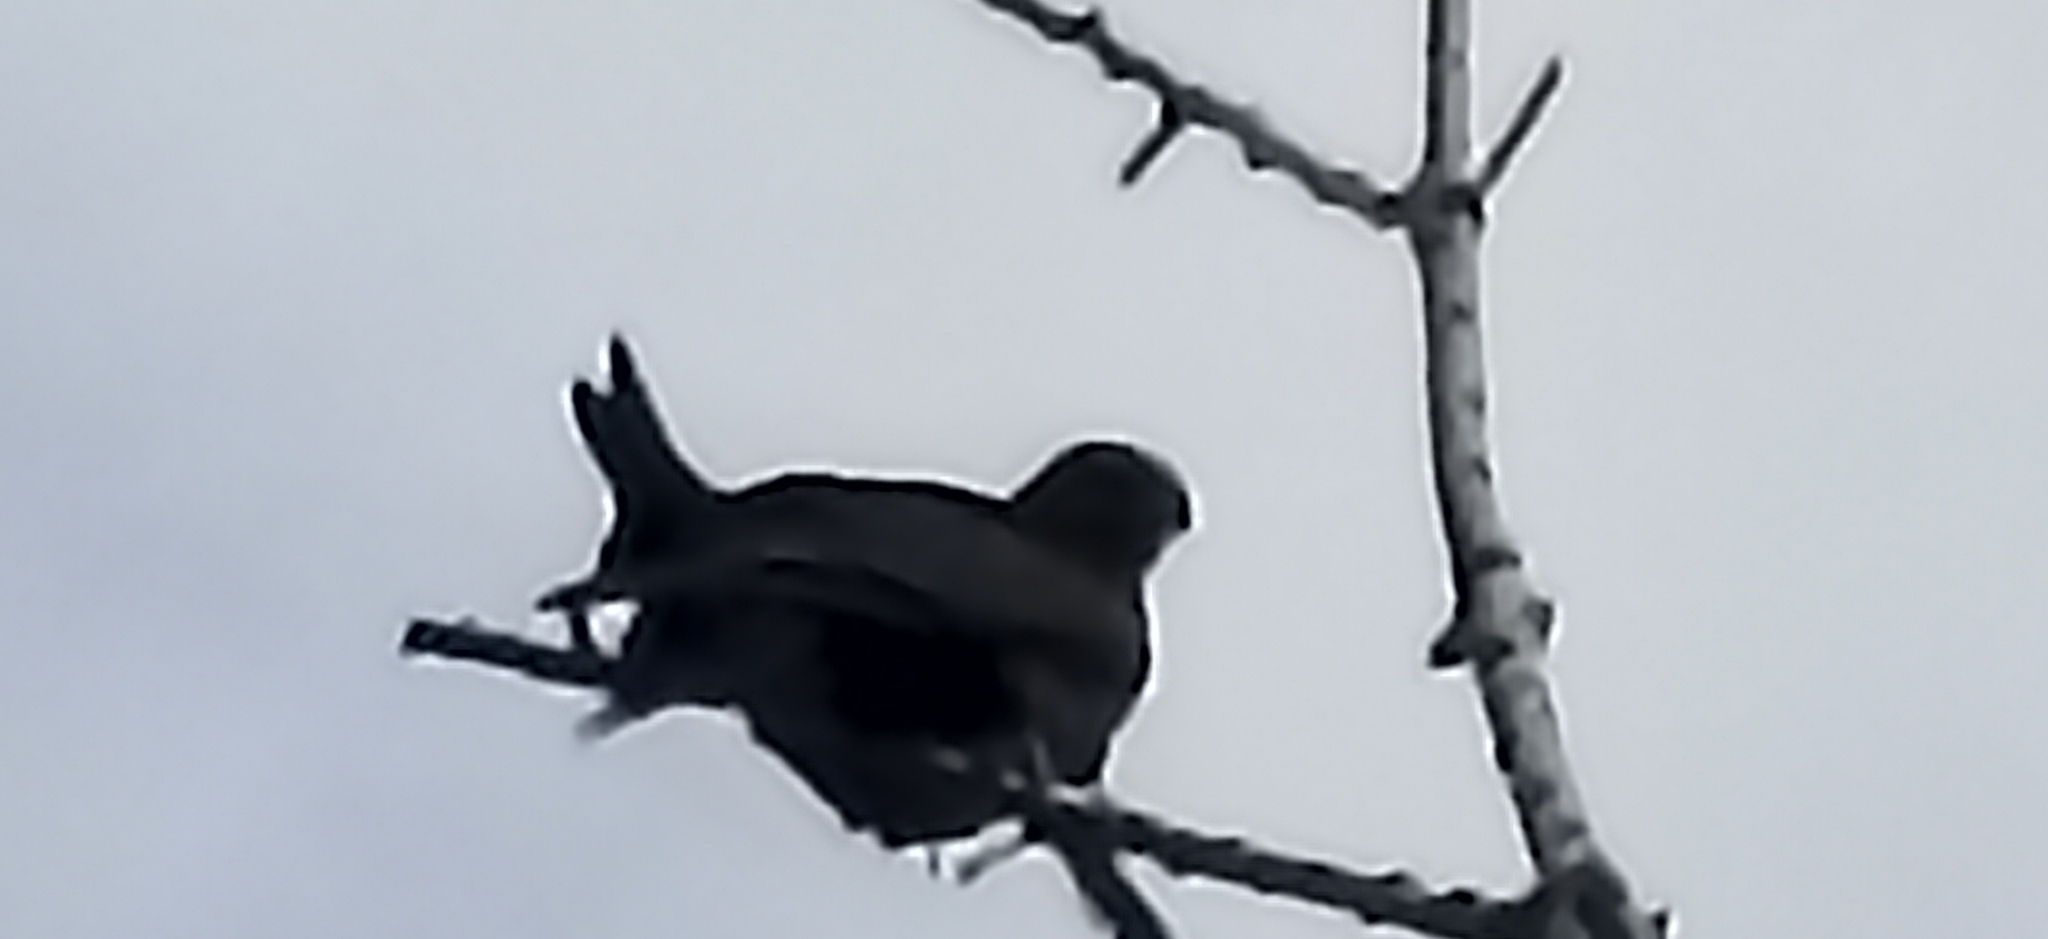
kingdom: Animalia
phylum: Chordata
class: Aves
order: Accipitriformes
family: Accipitridae
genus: Milvus
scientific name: Milvus migrans
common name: Black kite
